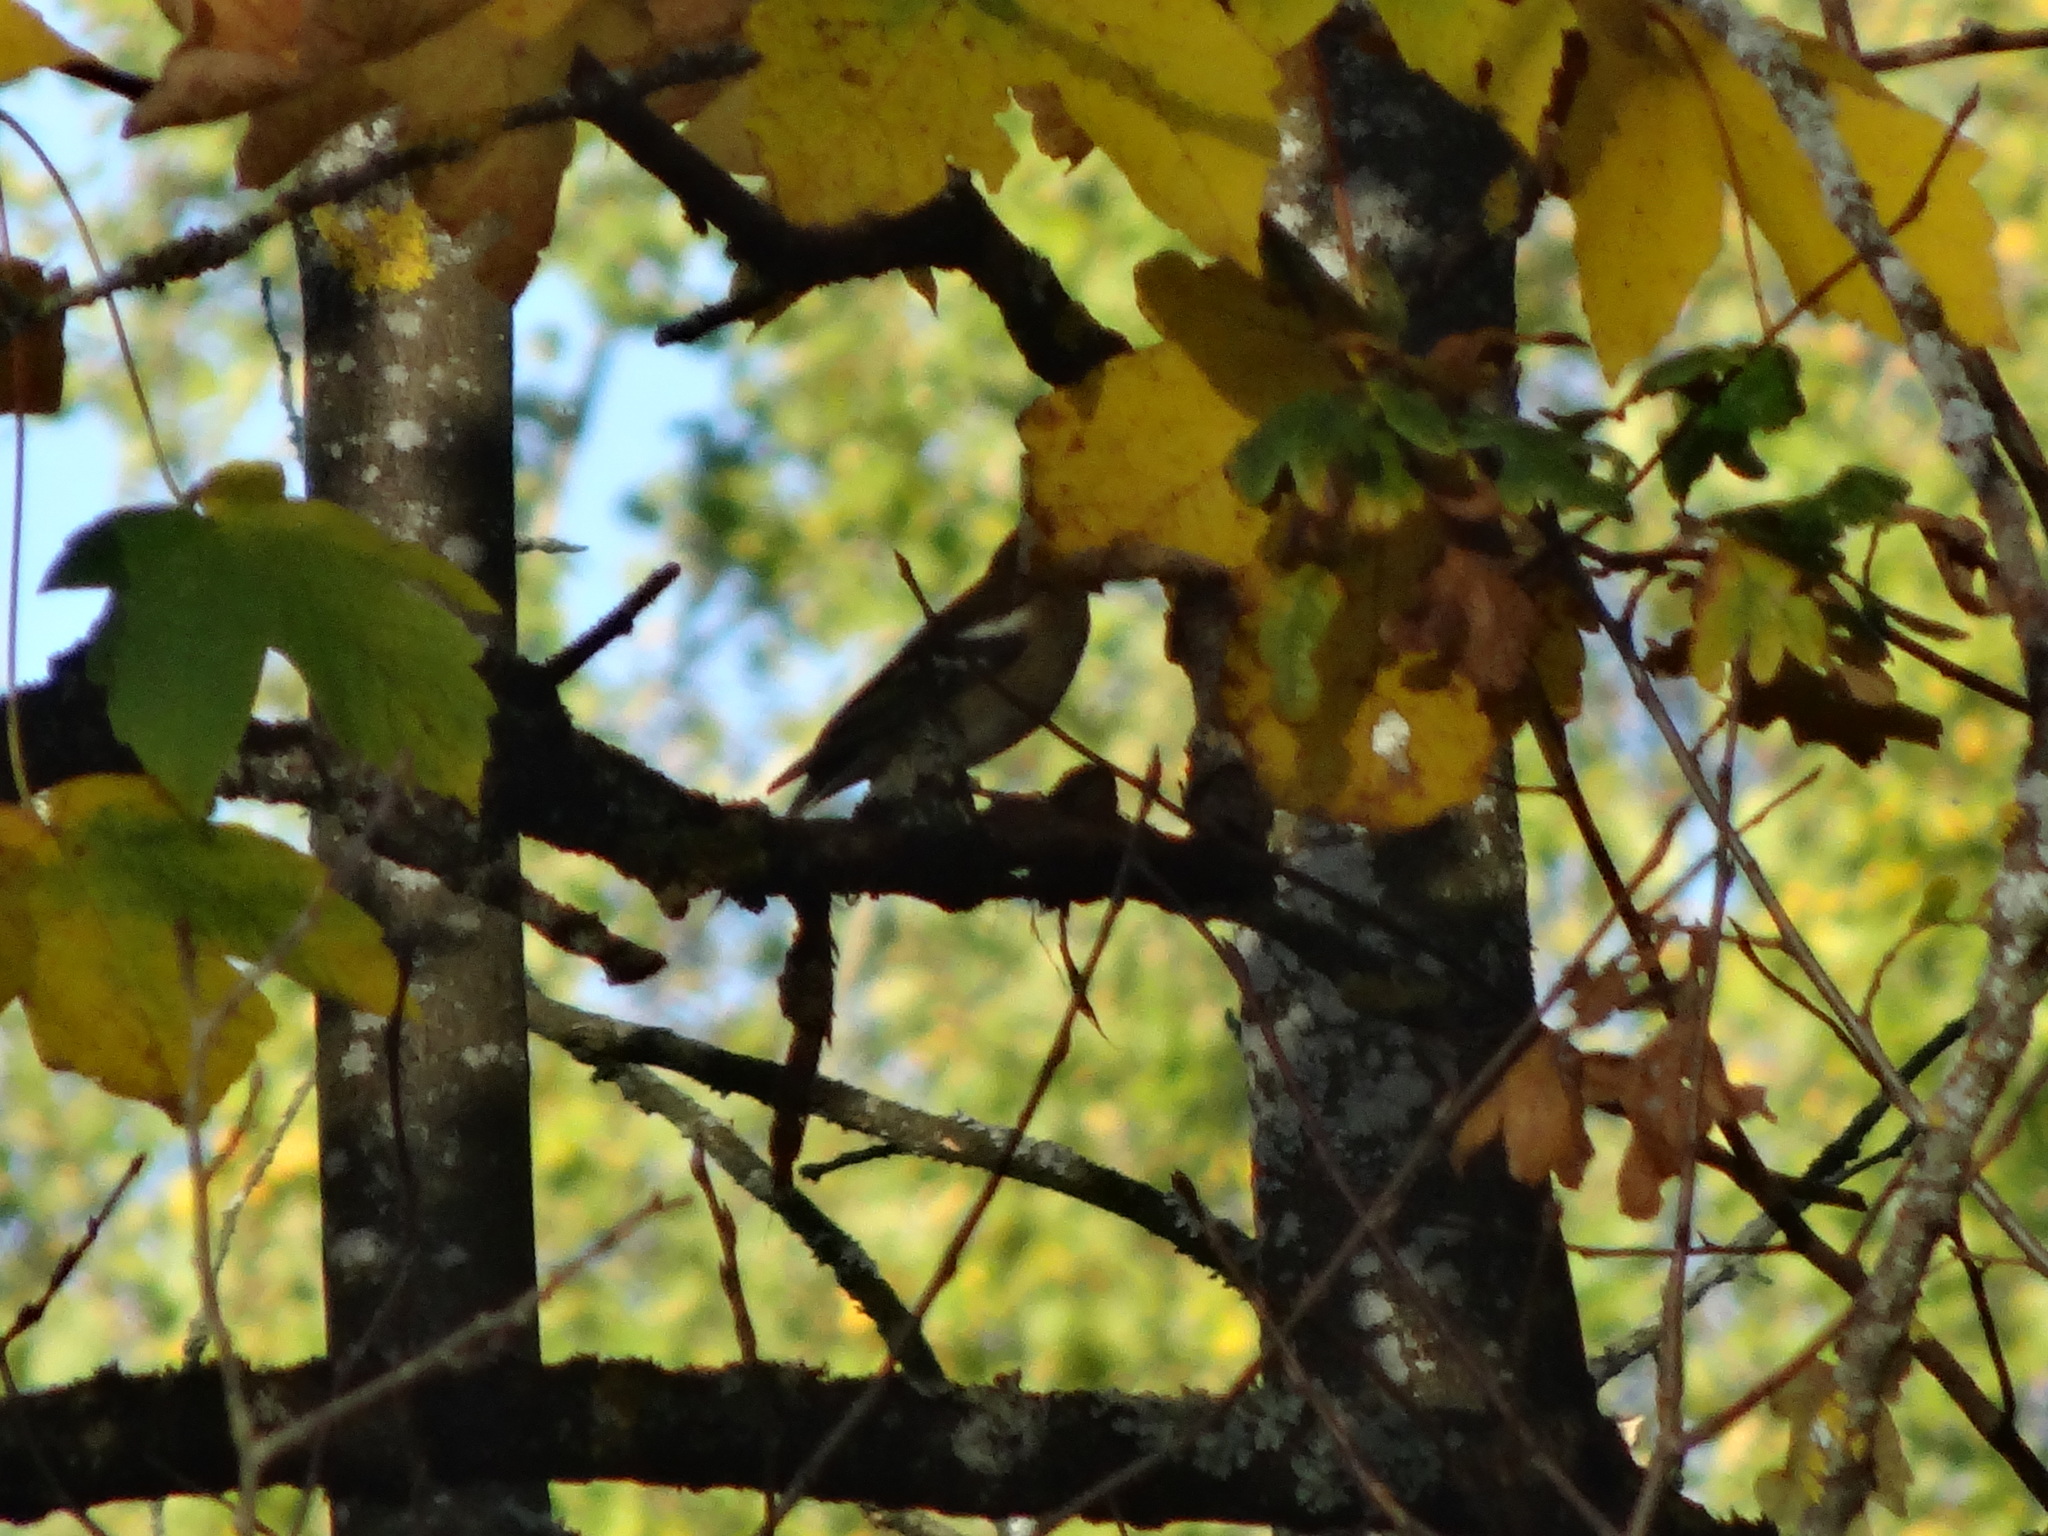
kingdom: Animalia
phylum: Chordata
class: Aves
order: Passeriformes
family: Fringillidae
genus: Fringilla
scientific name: Fringilla coelebs
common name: Common chaffinch
